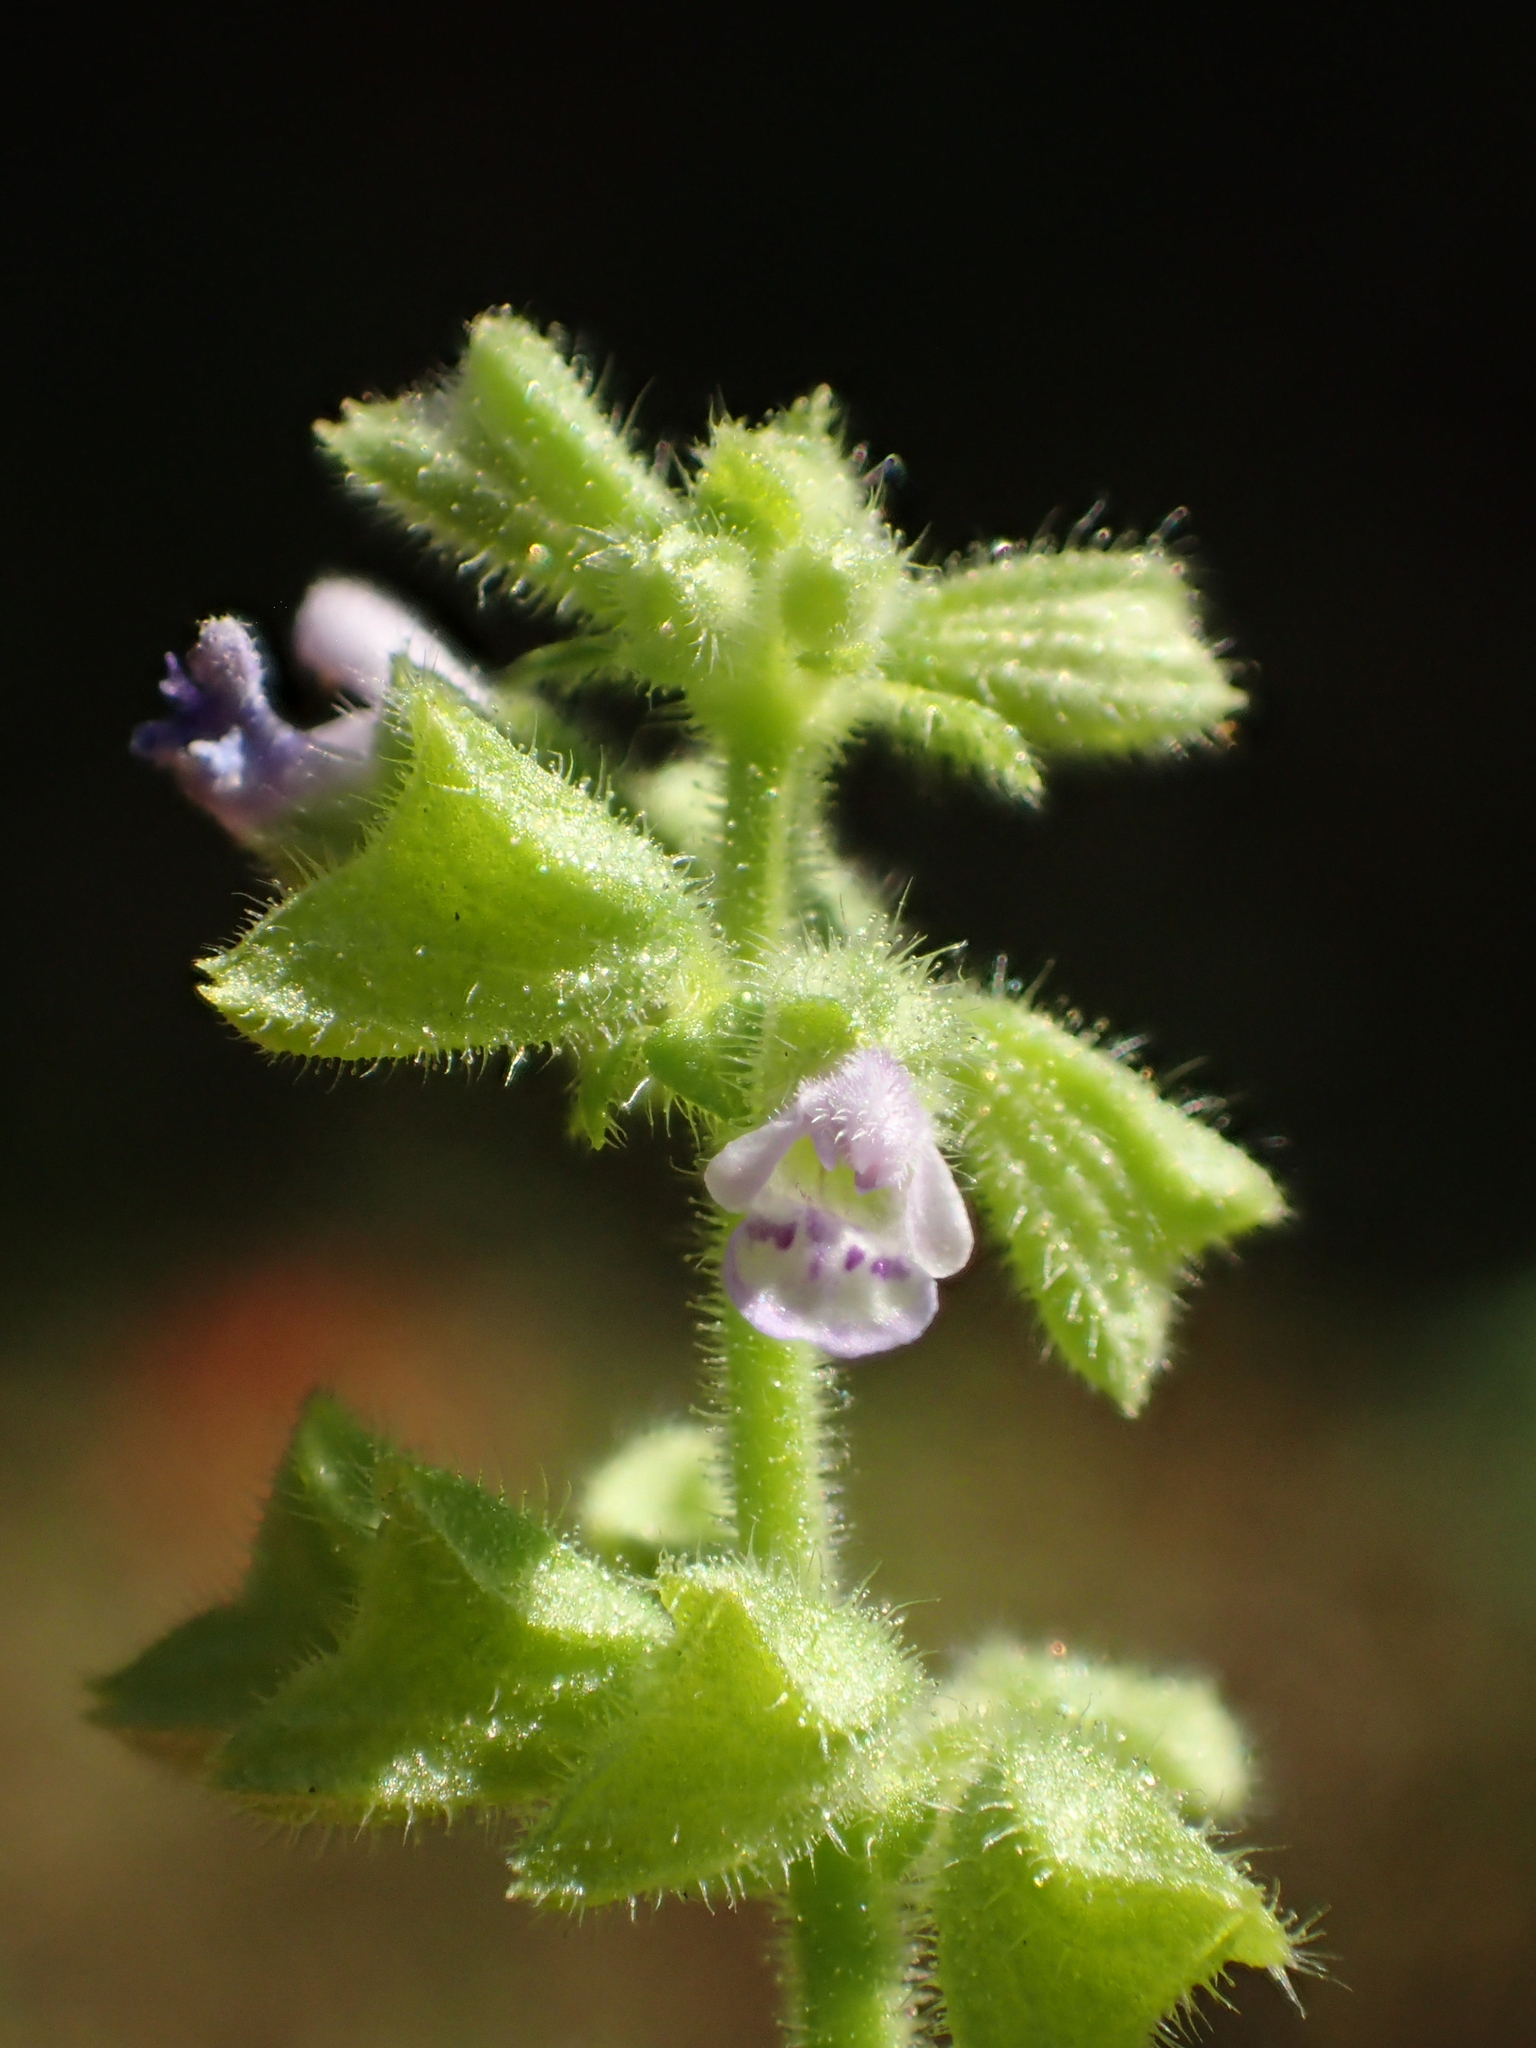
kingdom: Plantae
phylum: Tracheophyta
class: Magnoliopsida
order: Lamiales
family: Lamiaceae
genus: Salvia
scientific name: Salvia plebeia
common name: Australian sage
